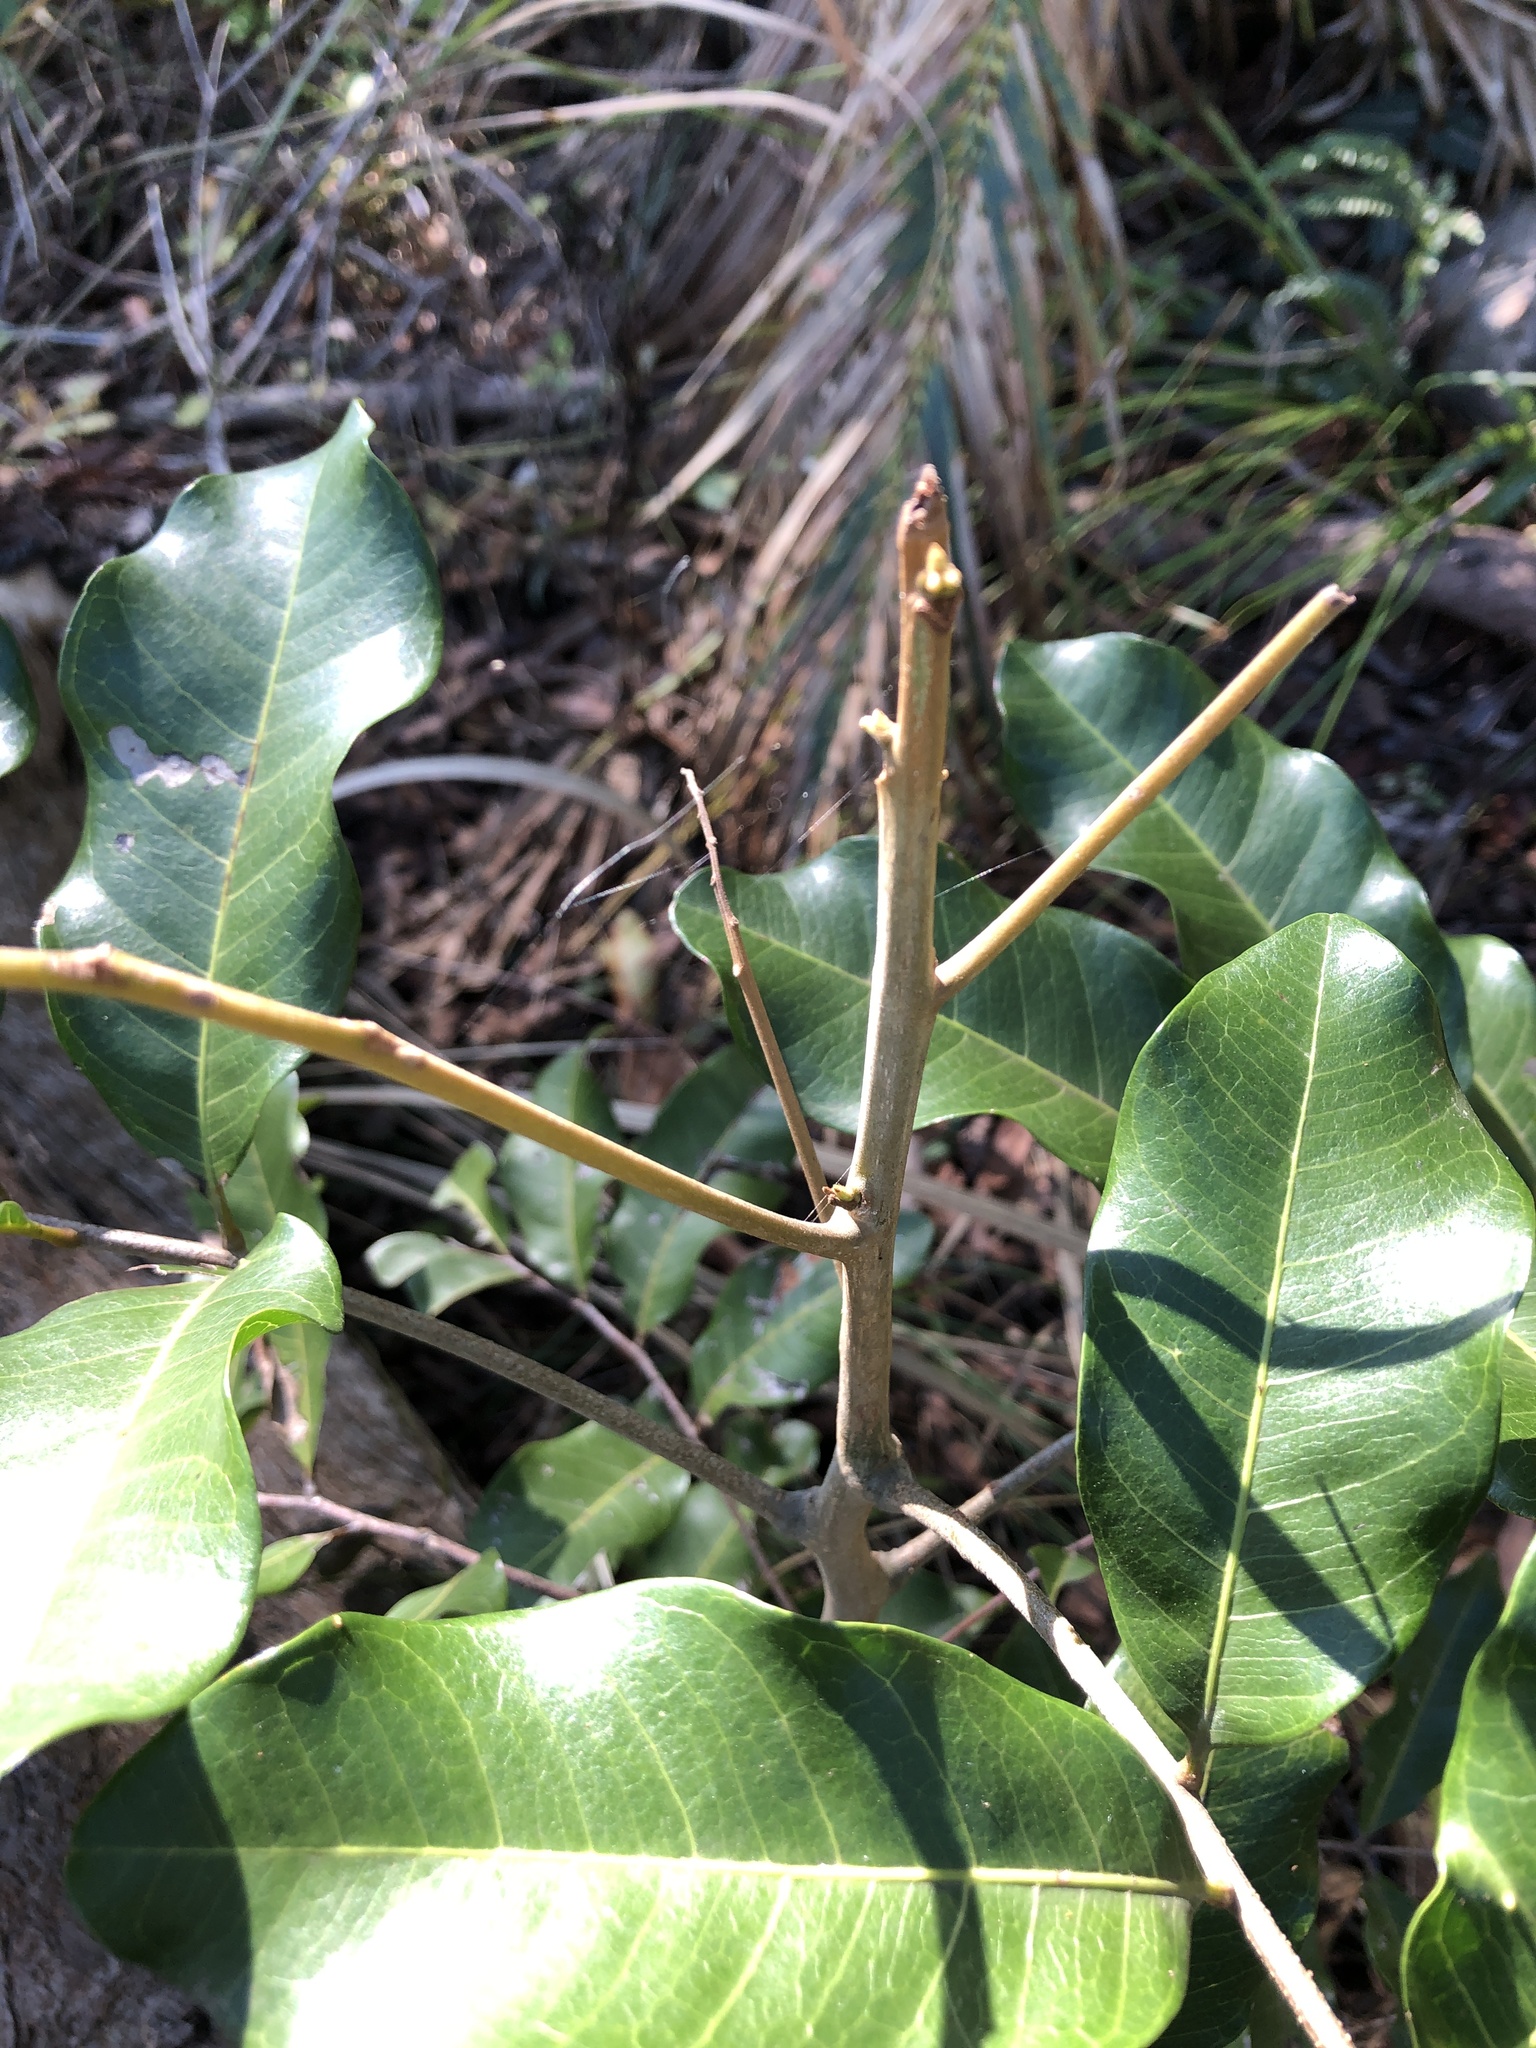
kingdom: Plantae
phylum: Tracheophyta
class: Magnoliopsida
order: Sapindales
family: Sapindaceae
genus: Cupaniopsis
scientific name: Cupaniopsis anacardioides
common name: Carrotwood
